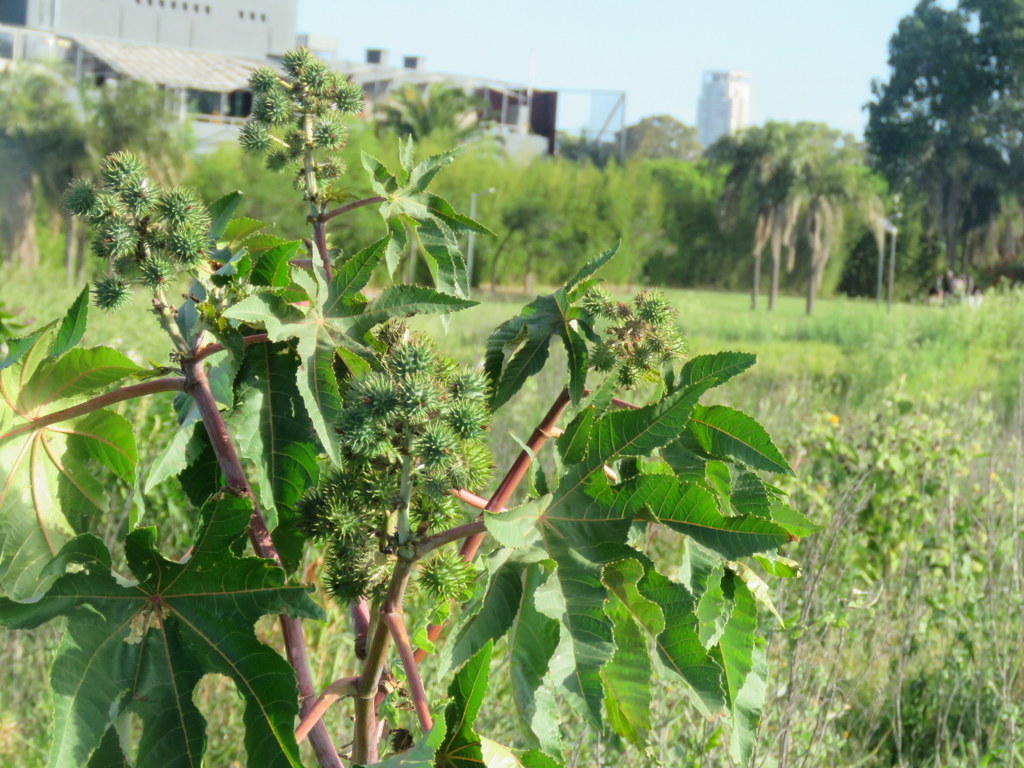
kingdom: Plantae
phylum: Tracheophyta
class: Magnoliopsida
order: Malpighiales
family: Euphorbiaceae
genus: Ricinus
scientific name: Ricinus communis
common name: Castor-oil-plant
